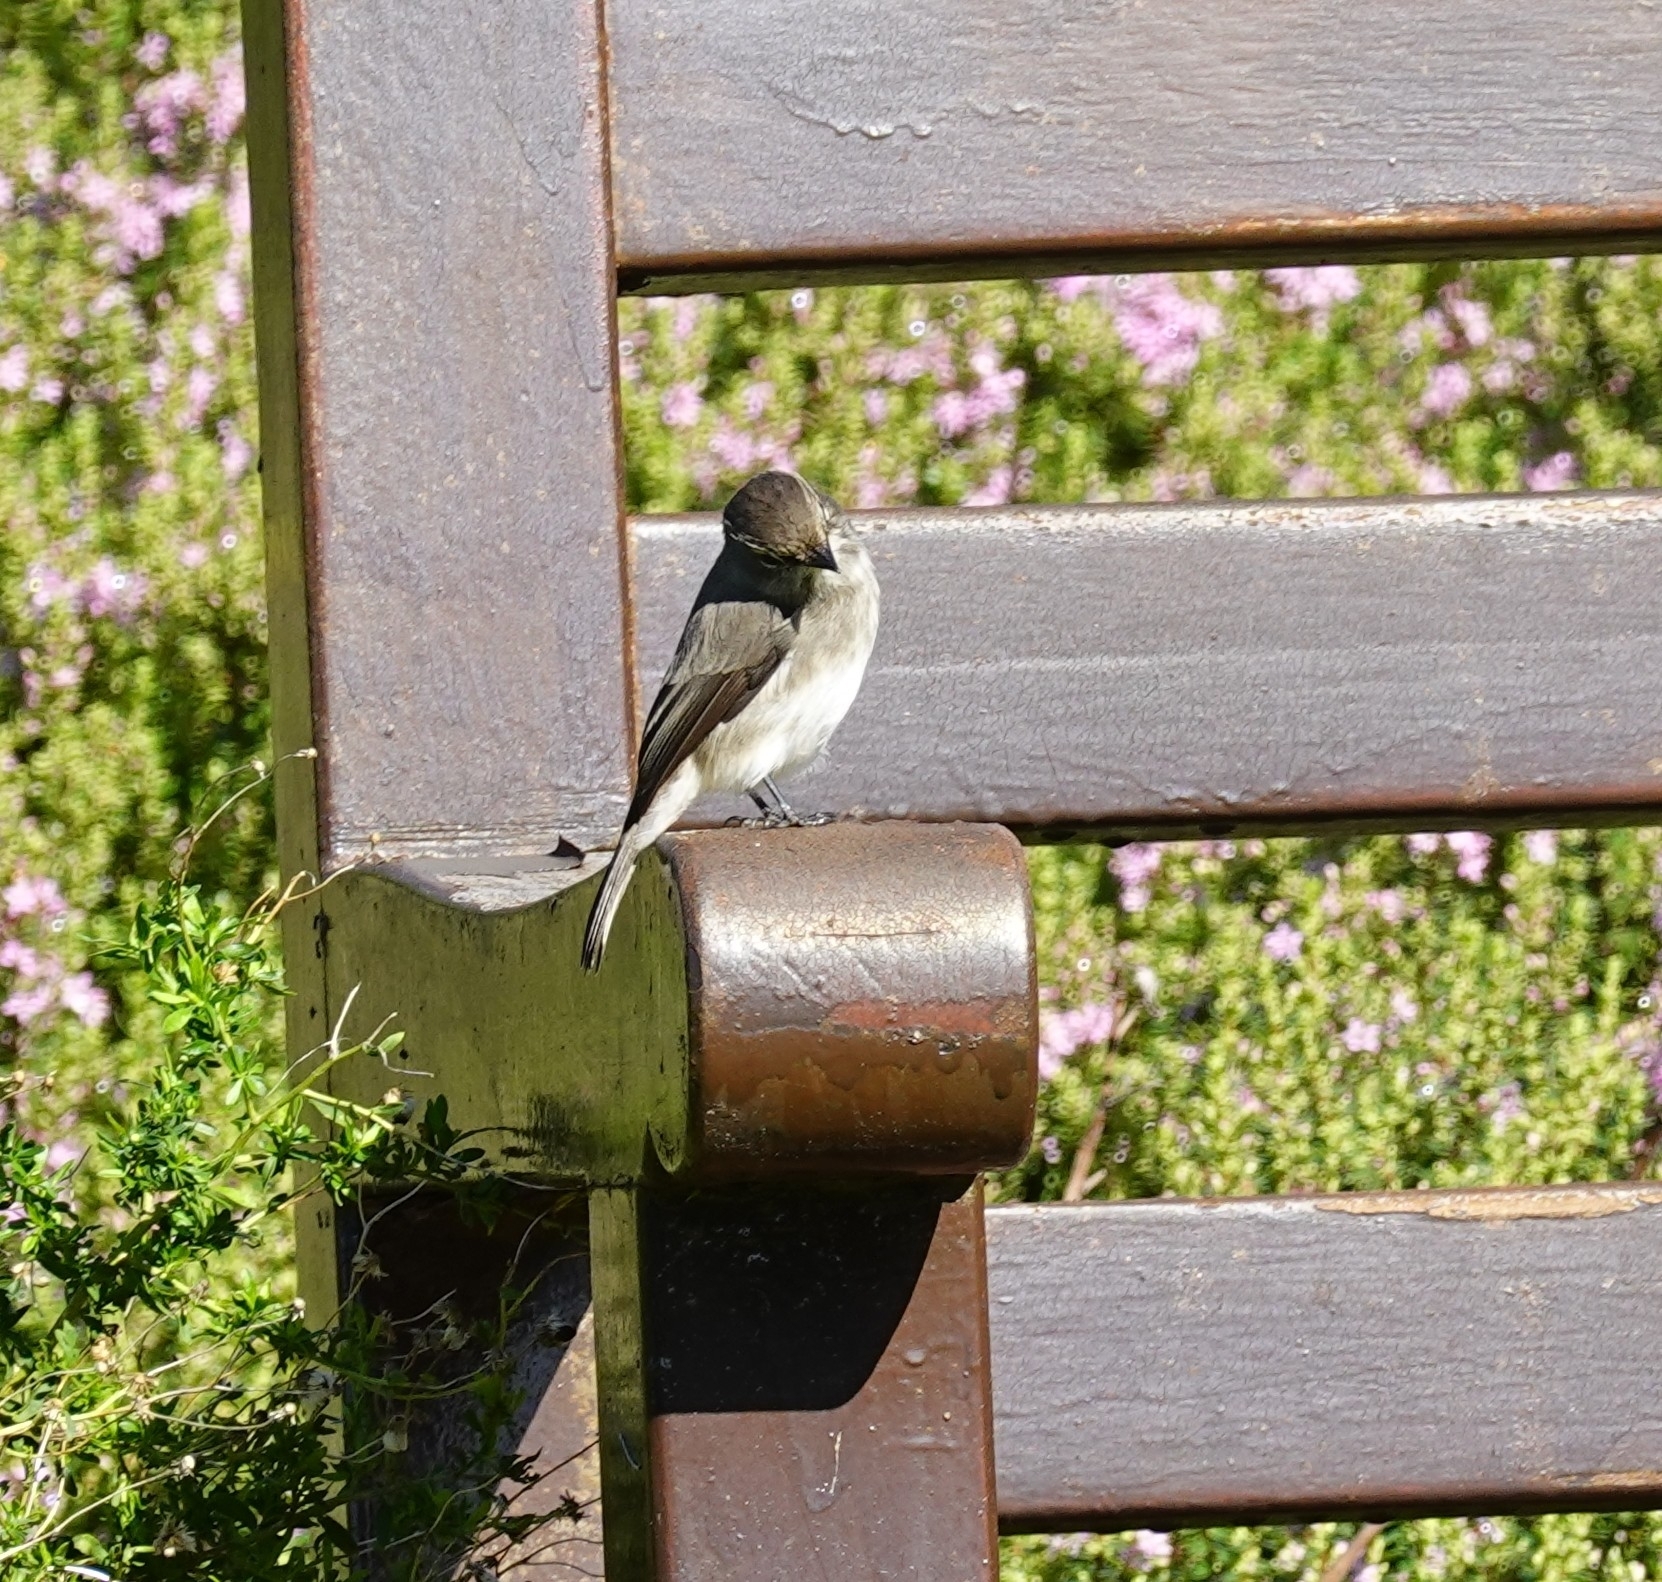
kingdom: Animalia
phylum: Chordata
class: Aves
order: Passeriformes
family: Muscicapidae
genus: Muscicapa
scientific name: Muscicapa adusta
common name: African dusky flycatcher
